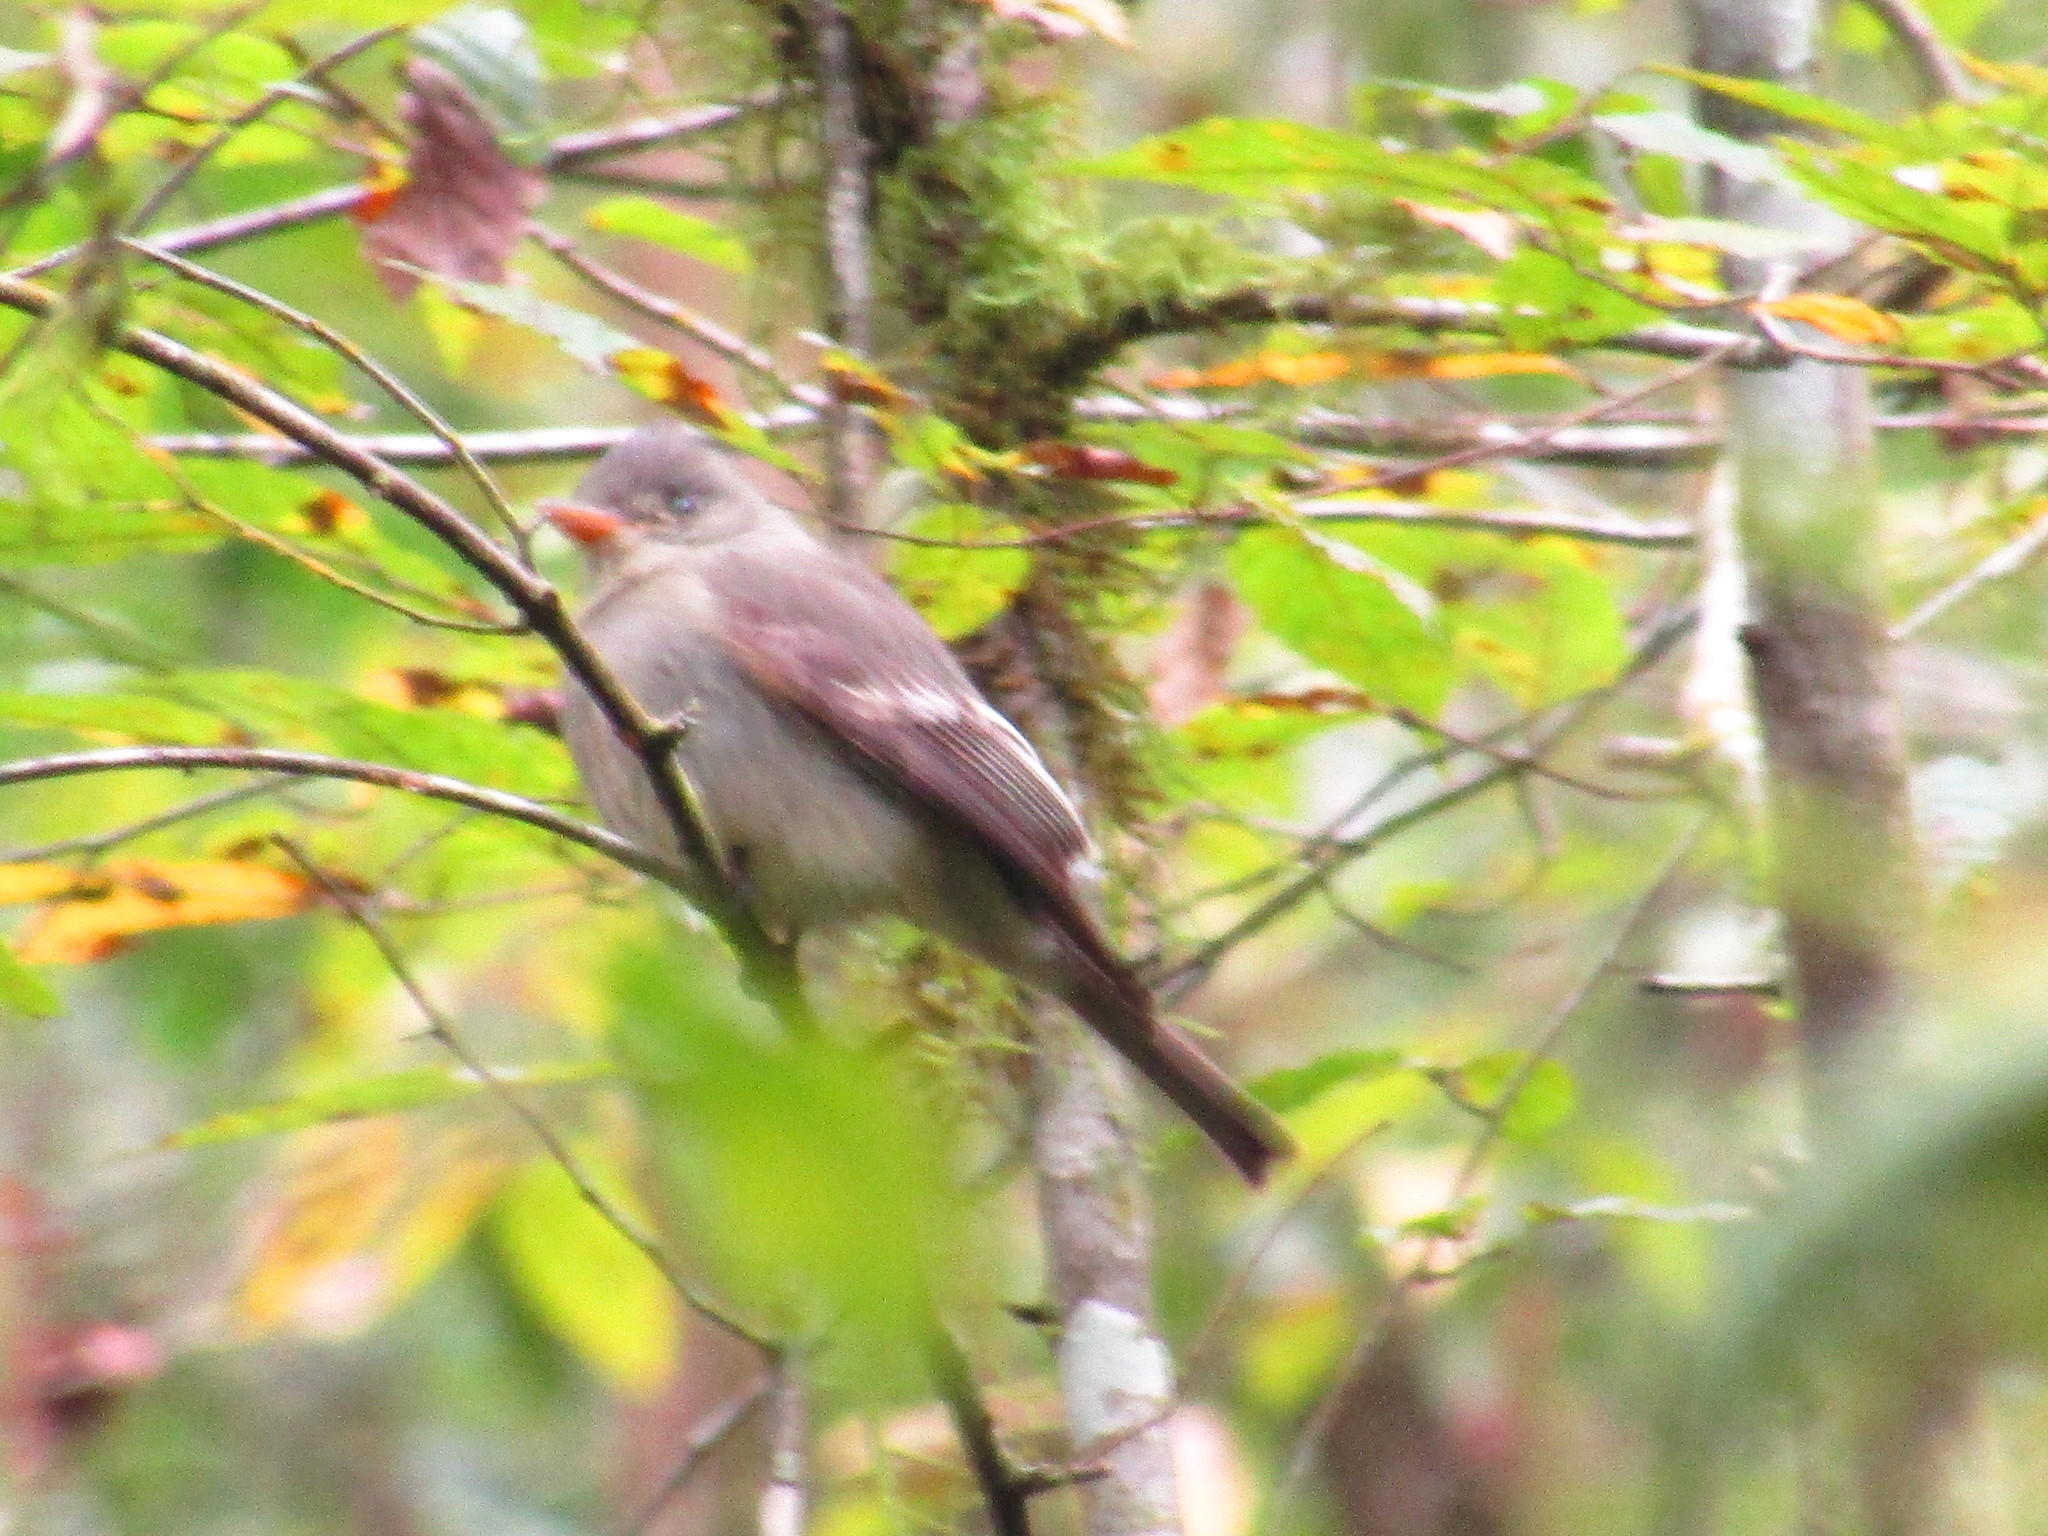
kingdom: Animalia
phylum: Chordata
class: Aves
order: Passeriformes
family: Tyrannidae
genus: Contopus
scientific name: Contopus pertinax
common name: Greater pewee
